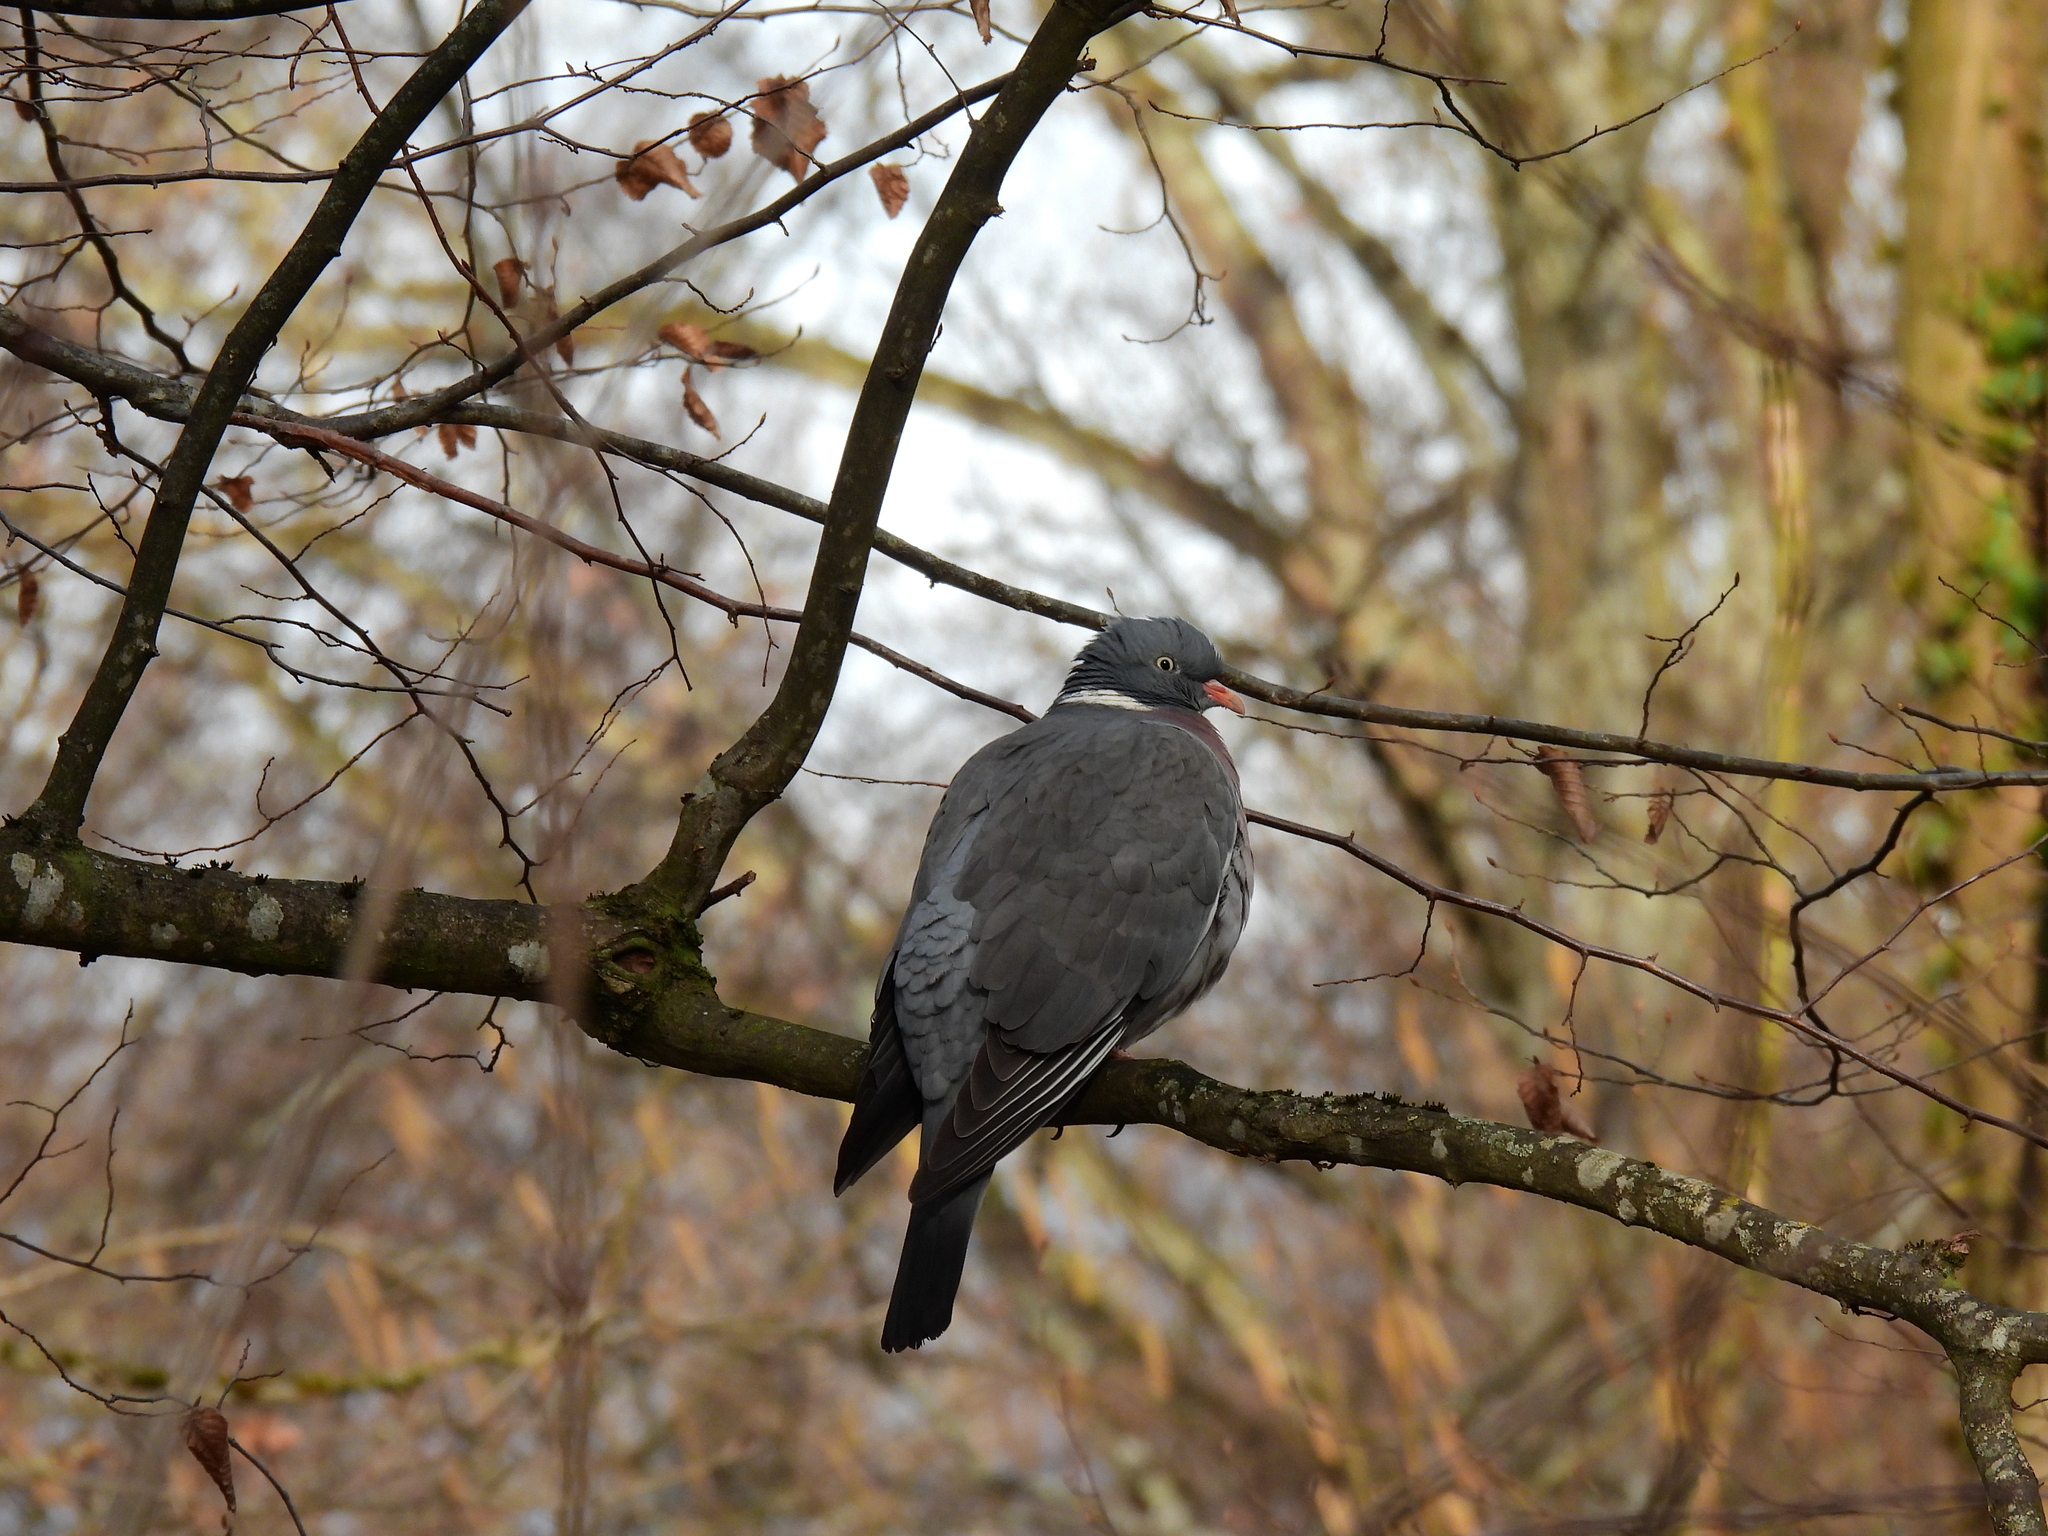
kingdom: Animalia
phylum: Chordata
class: Aves
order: Columbiformes
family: Columbidae
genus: Columba
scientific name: Columba palumbus
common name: Common wood pigeon
